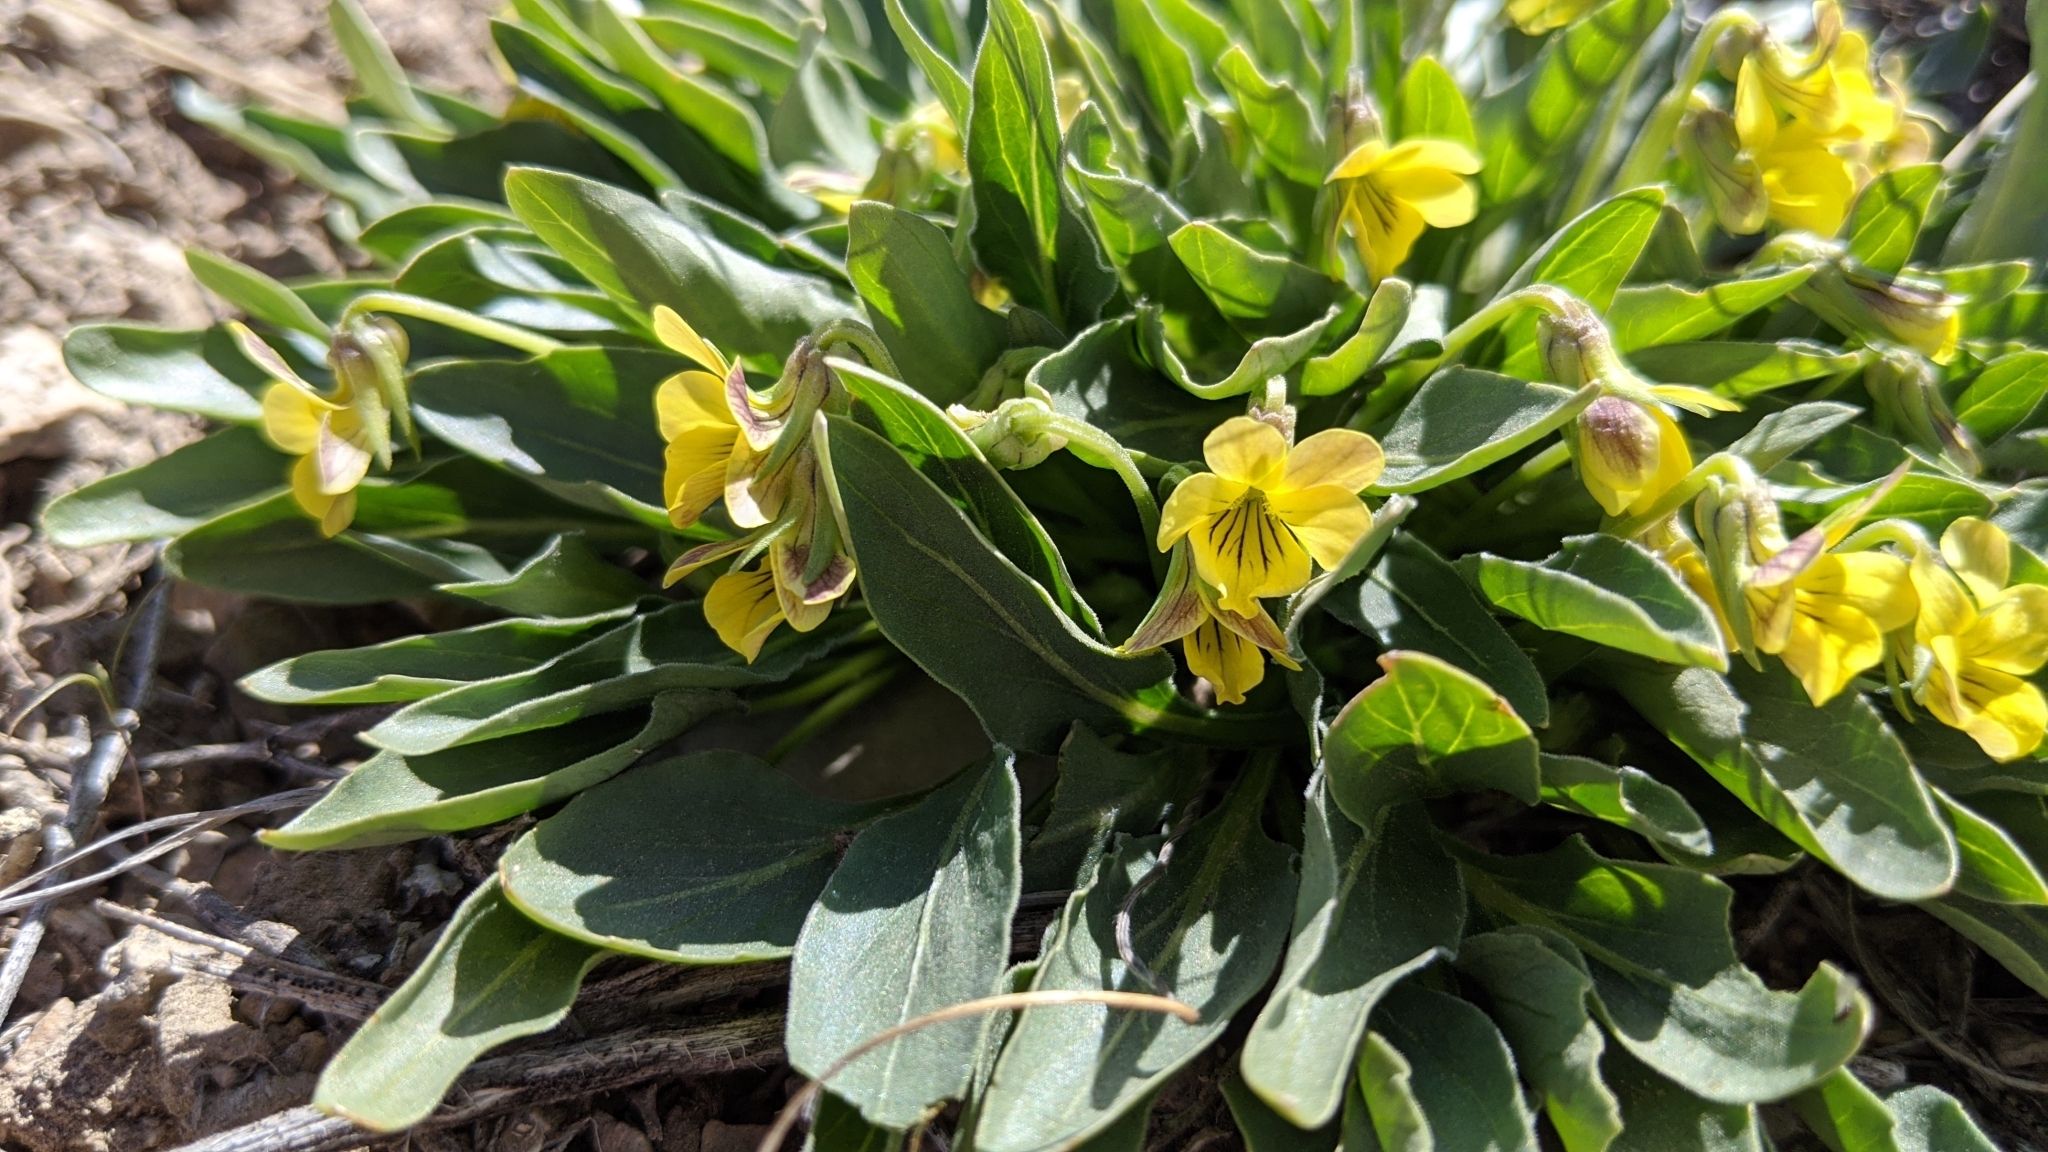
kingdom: Plantae
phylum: Tracheophyta
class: Magnoliopsida
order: Malpighiales
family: Violaceae
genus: Viola
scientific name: Viola nuttallii
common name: Yellow prairie violet
